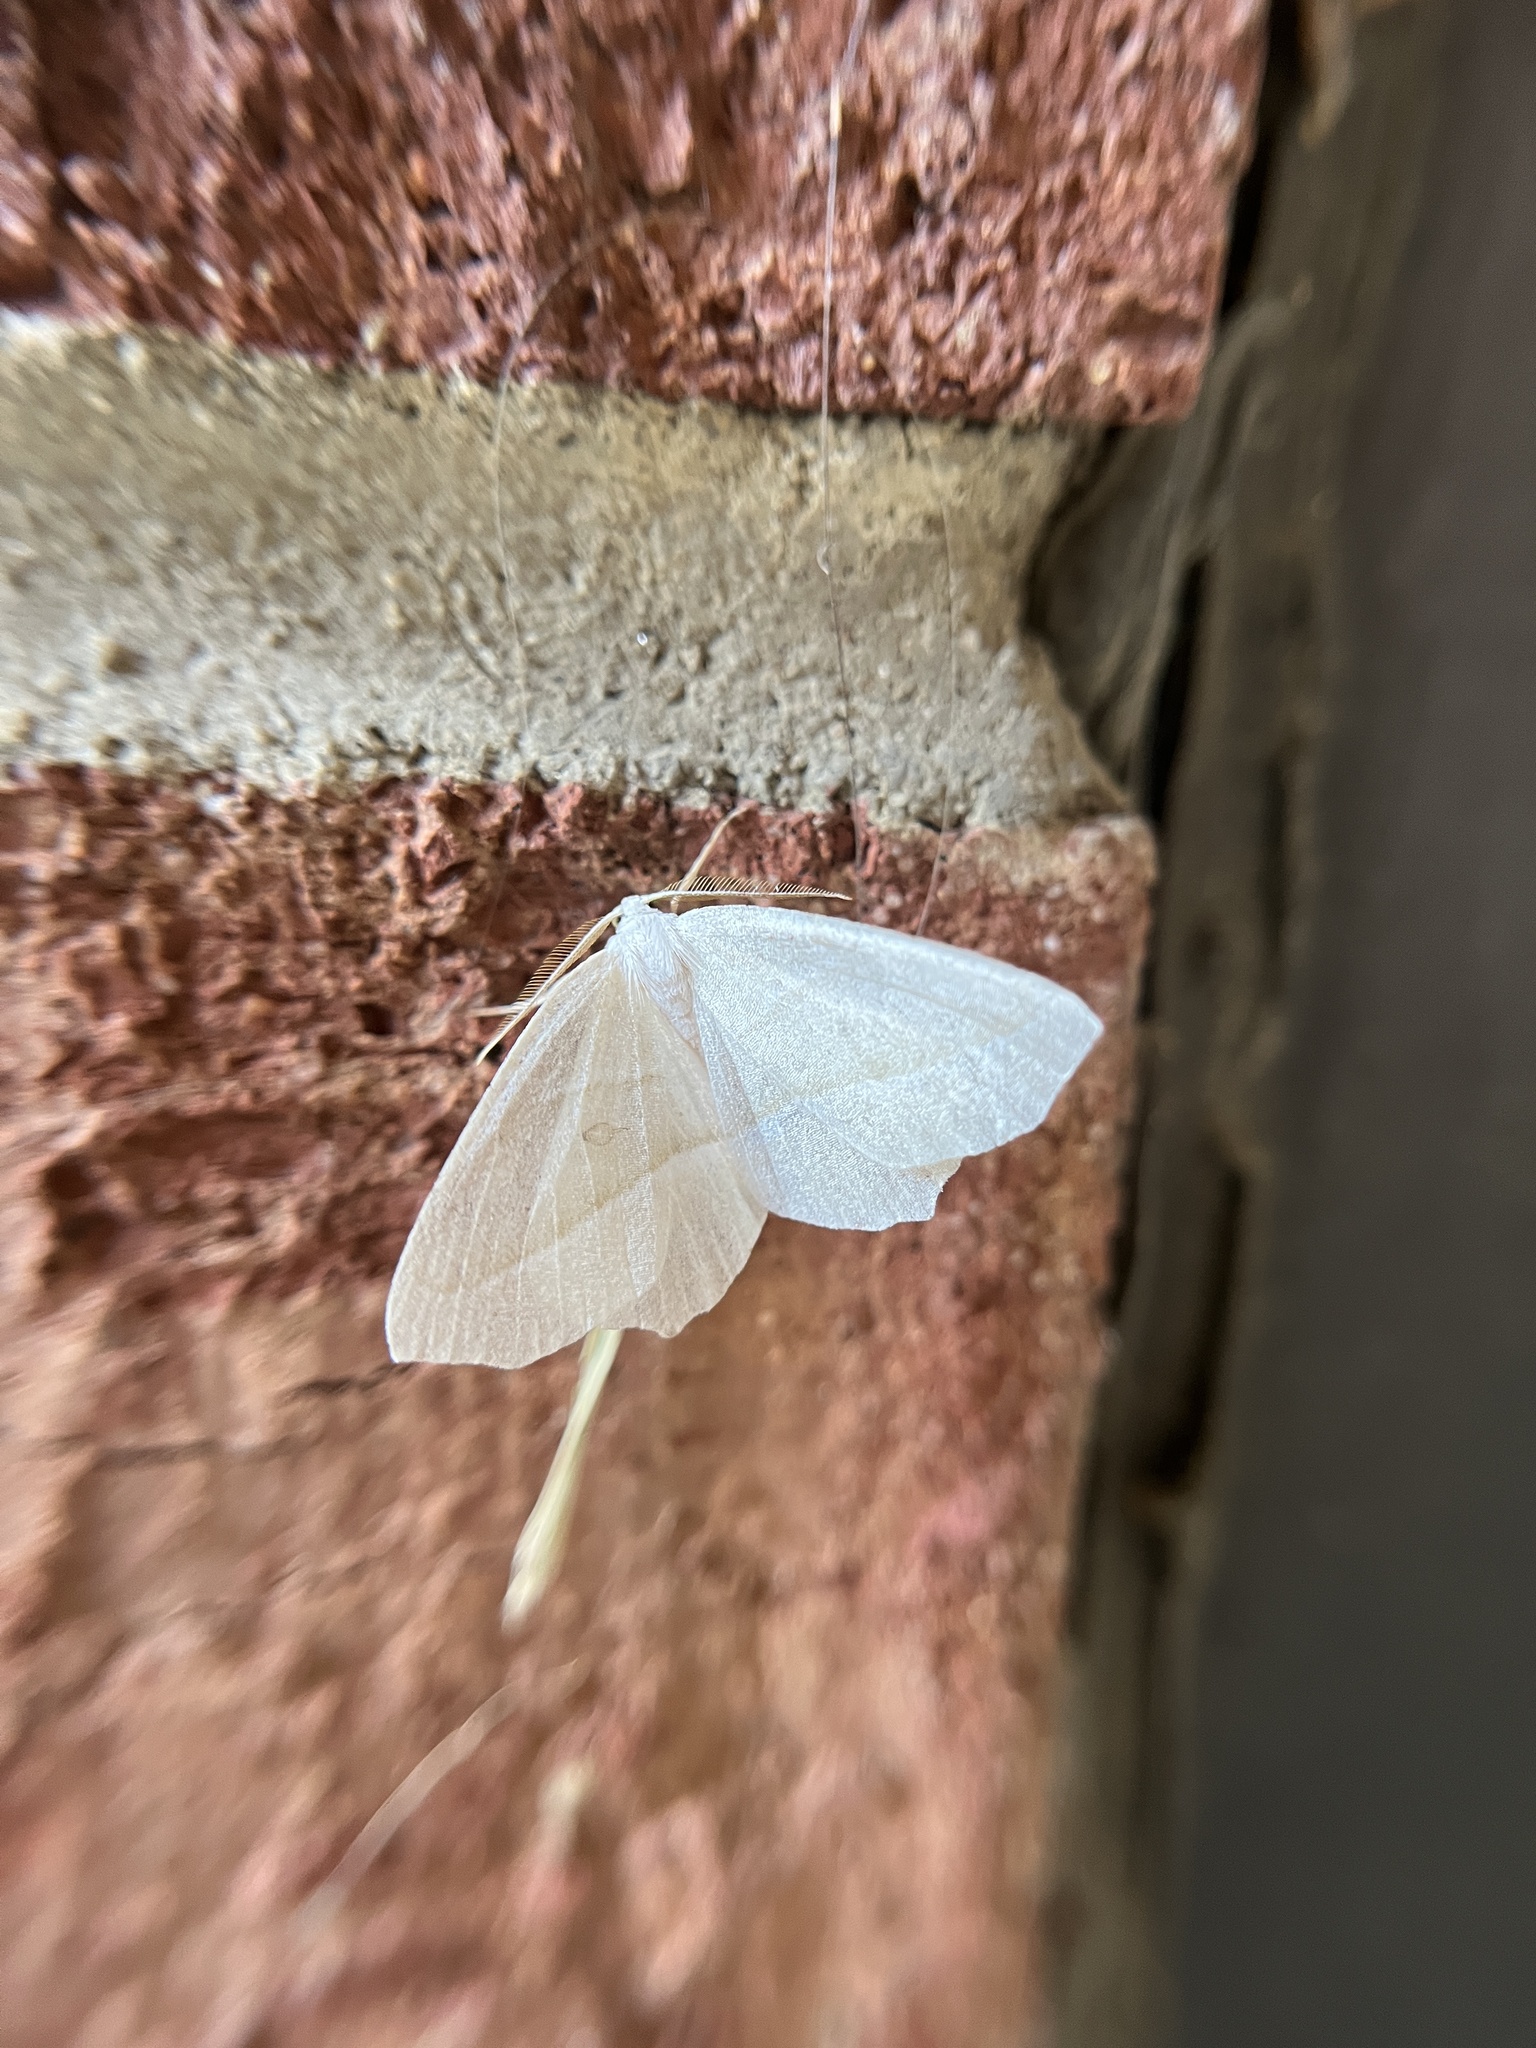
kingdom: Animalia
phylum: Arthropoda
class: Insecta
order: Lepidoptera
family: Geometridae
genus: Campaea
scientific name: Campaea perlata
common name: Fringed looper
